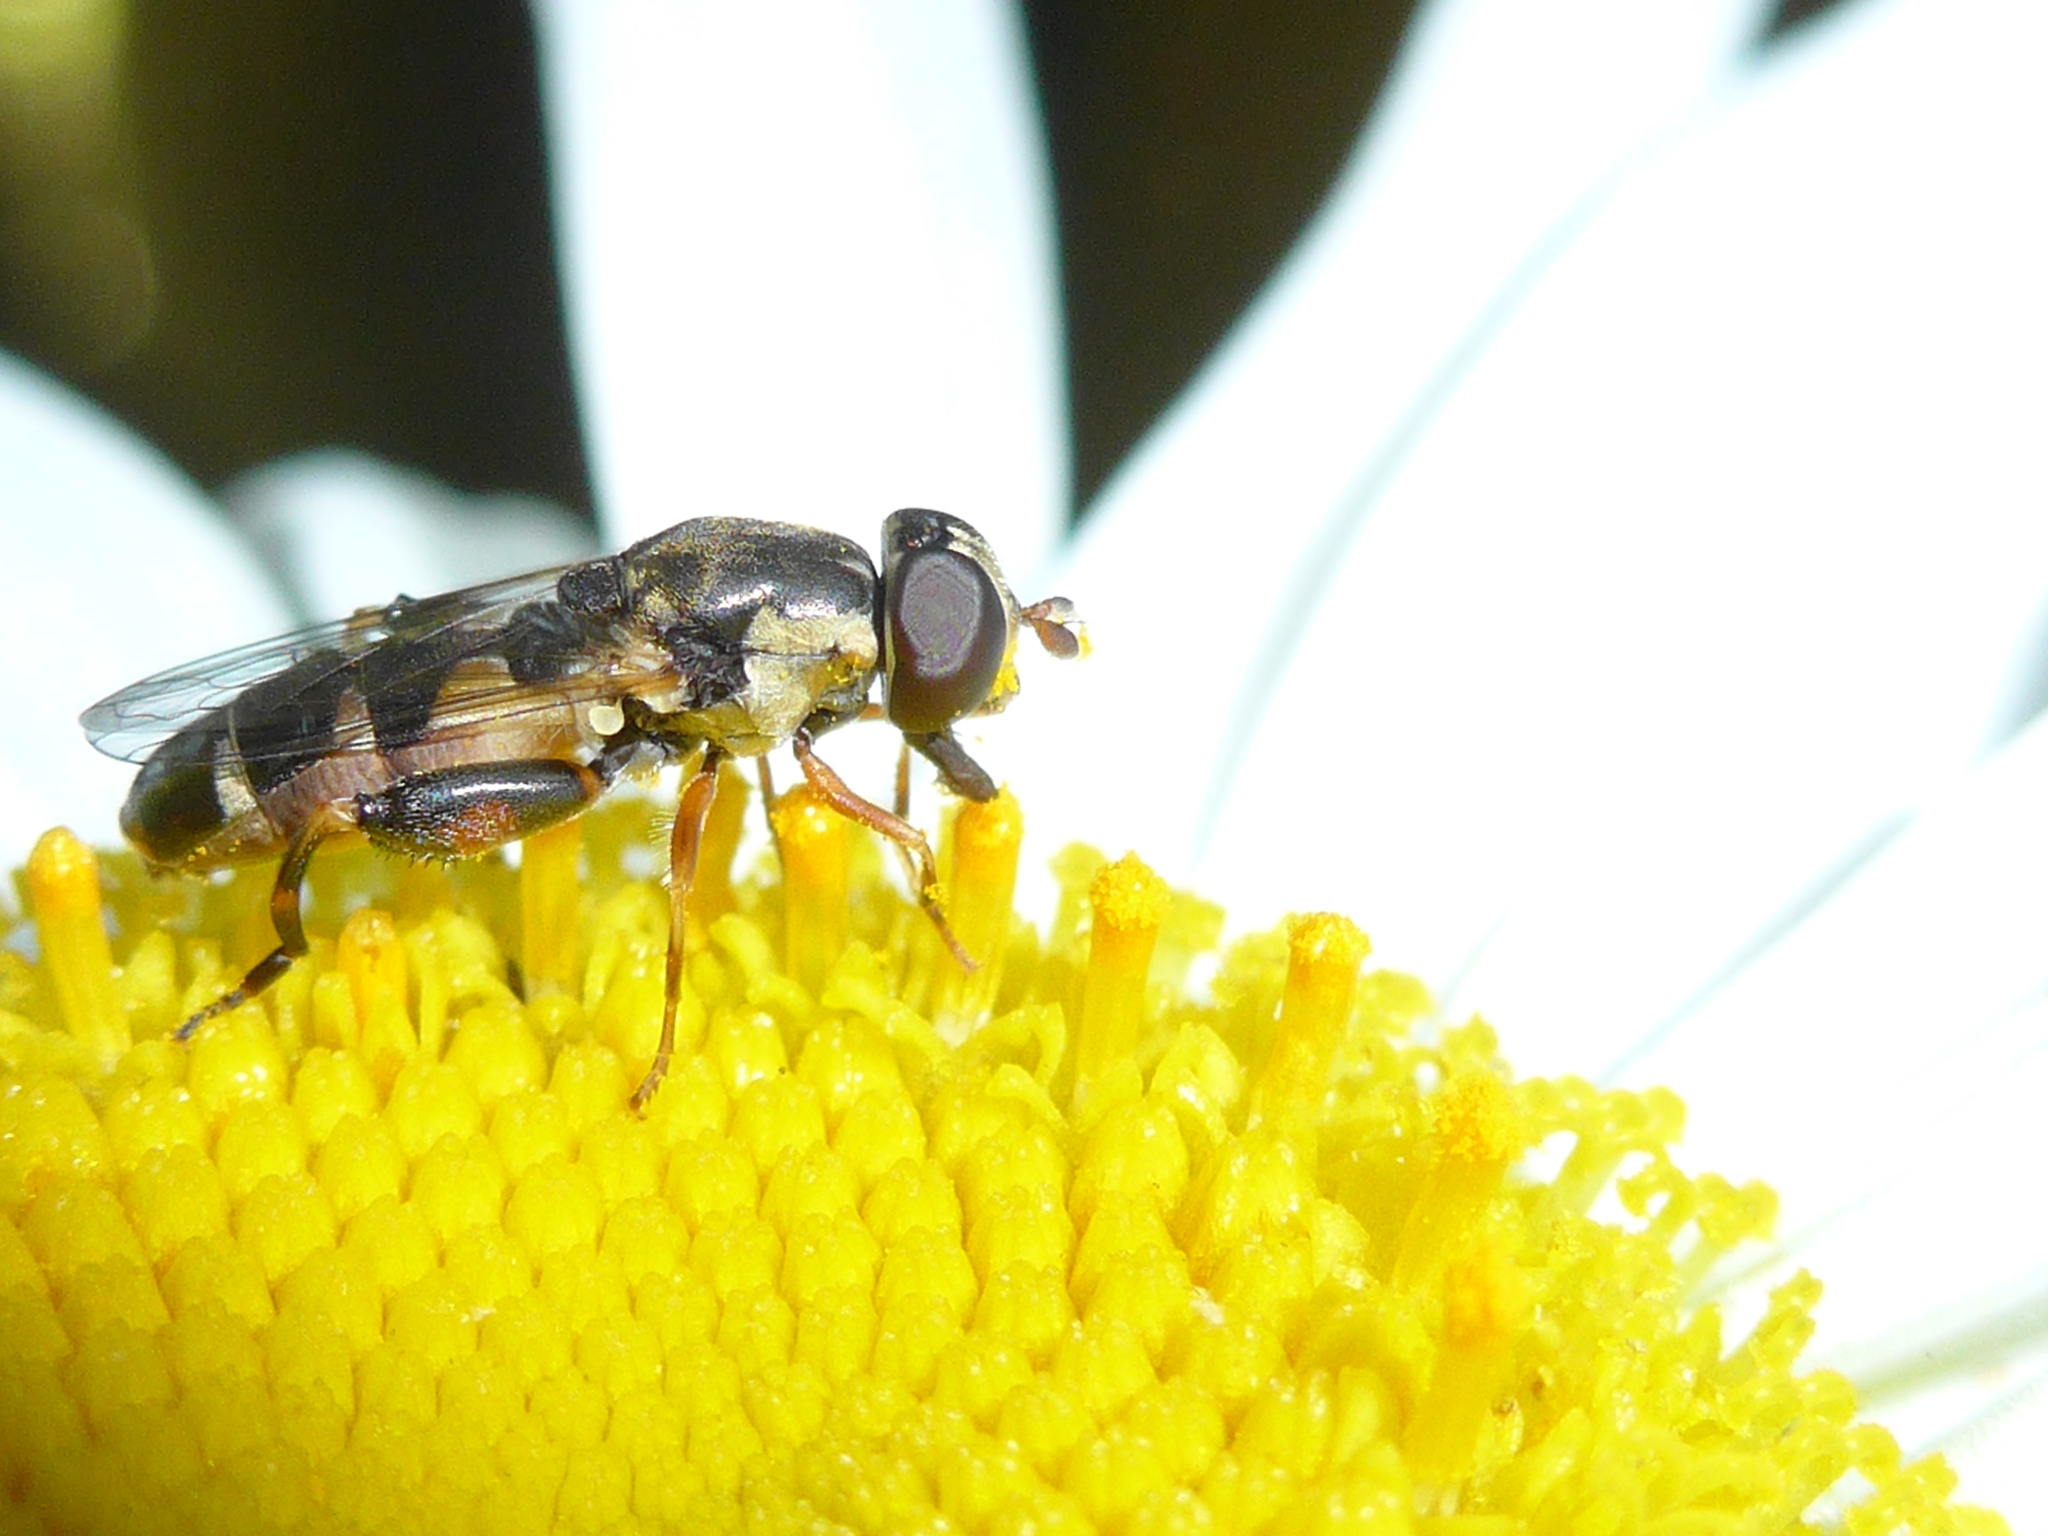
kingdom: Animalia
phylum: Arthropoda
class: Insecta
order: Diptera
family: Syrphidae
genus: Syritta
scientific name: Syritta pipiens
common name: Hover fly
